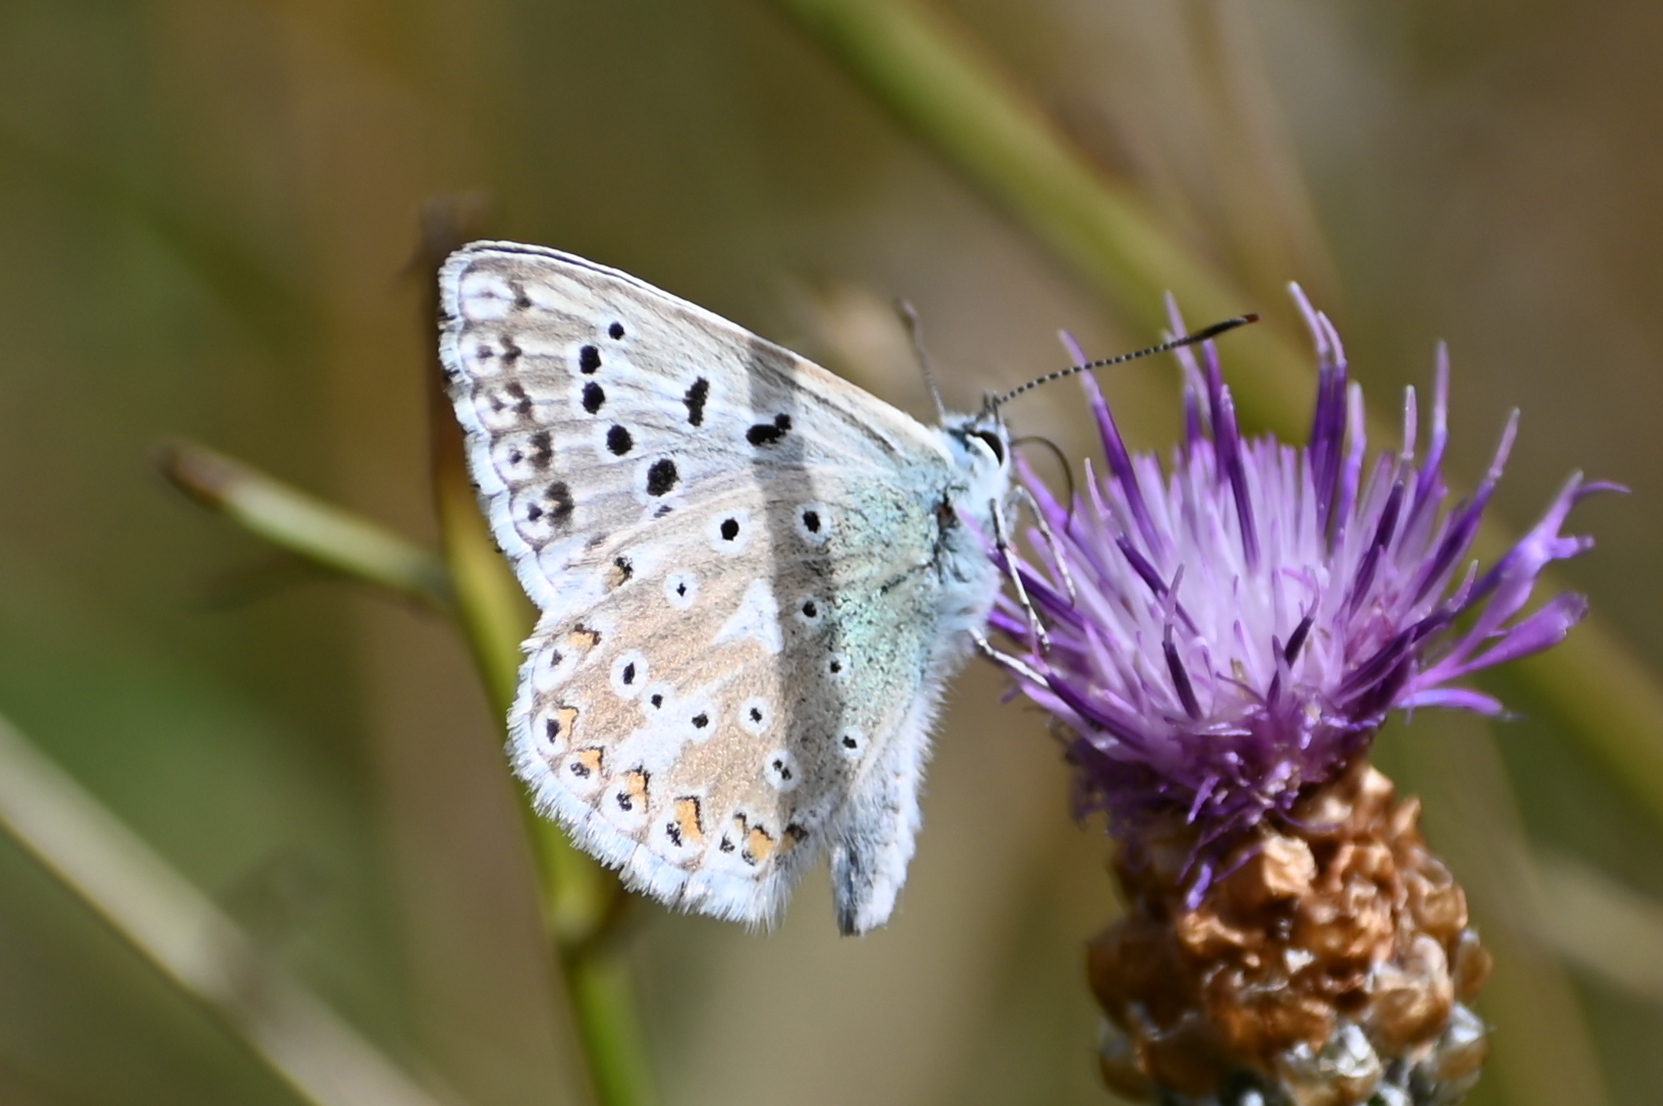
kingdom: Animalia
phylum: Arthropoda
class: Insecta
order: Lepidoptera
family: Lycaenidae
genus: Lysandra
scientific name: Lysandra coridon
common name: Chalkhill blue
